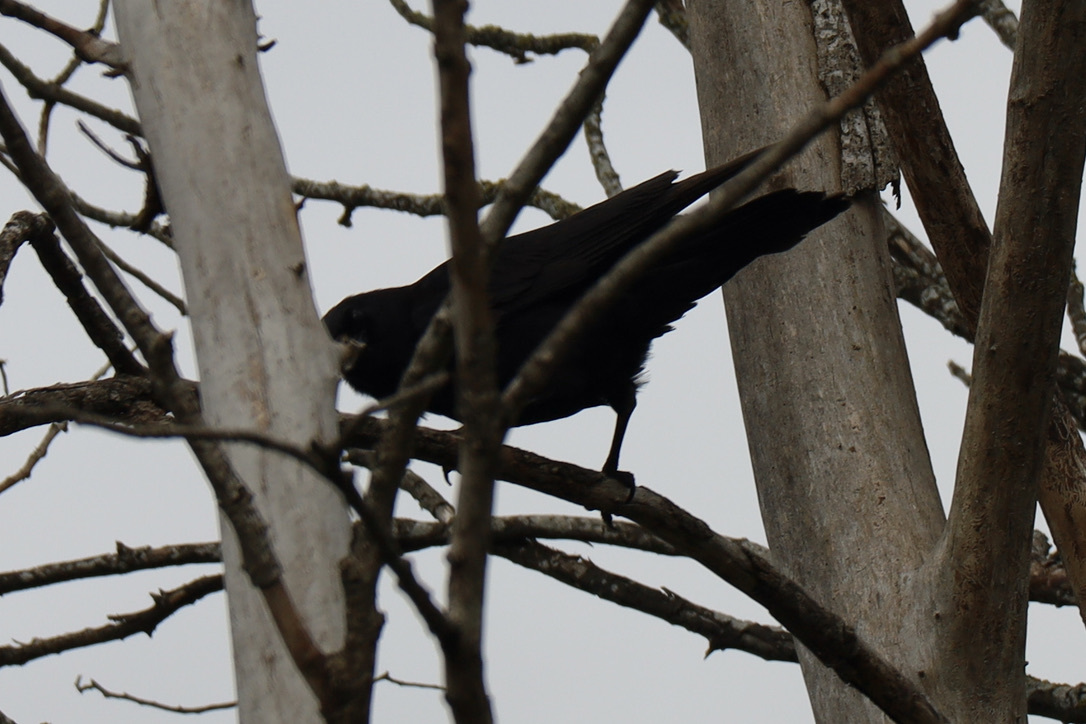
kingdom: Animalia
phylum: Chordata
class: Aves
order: Passeriformes
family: Corvidae
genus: Corvus
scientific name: Corvus brachyrhynchos
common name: American crow
